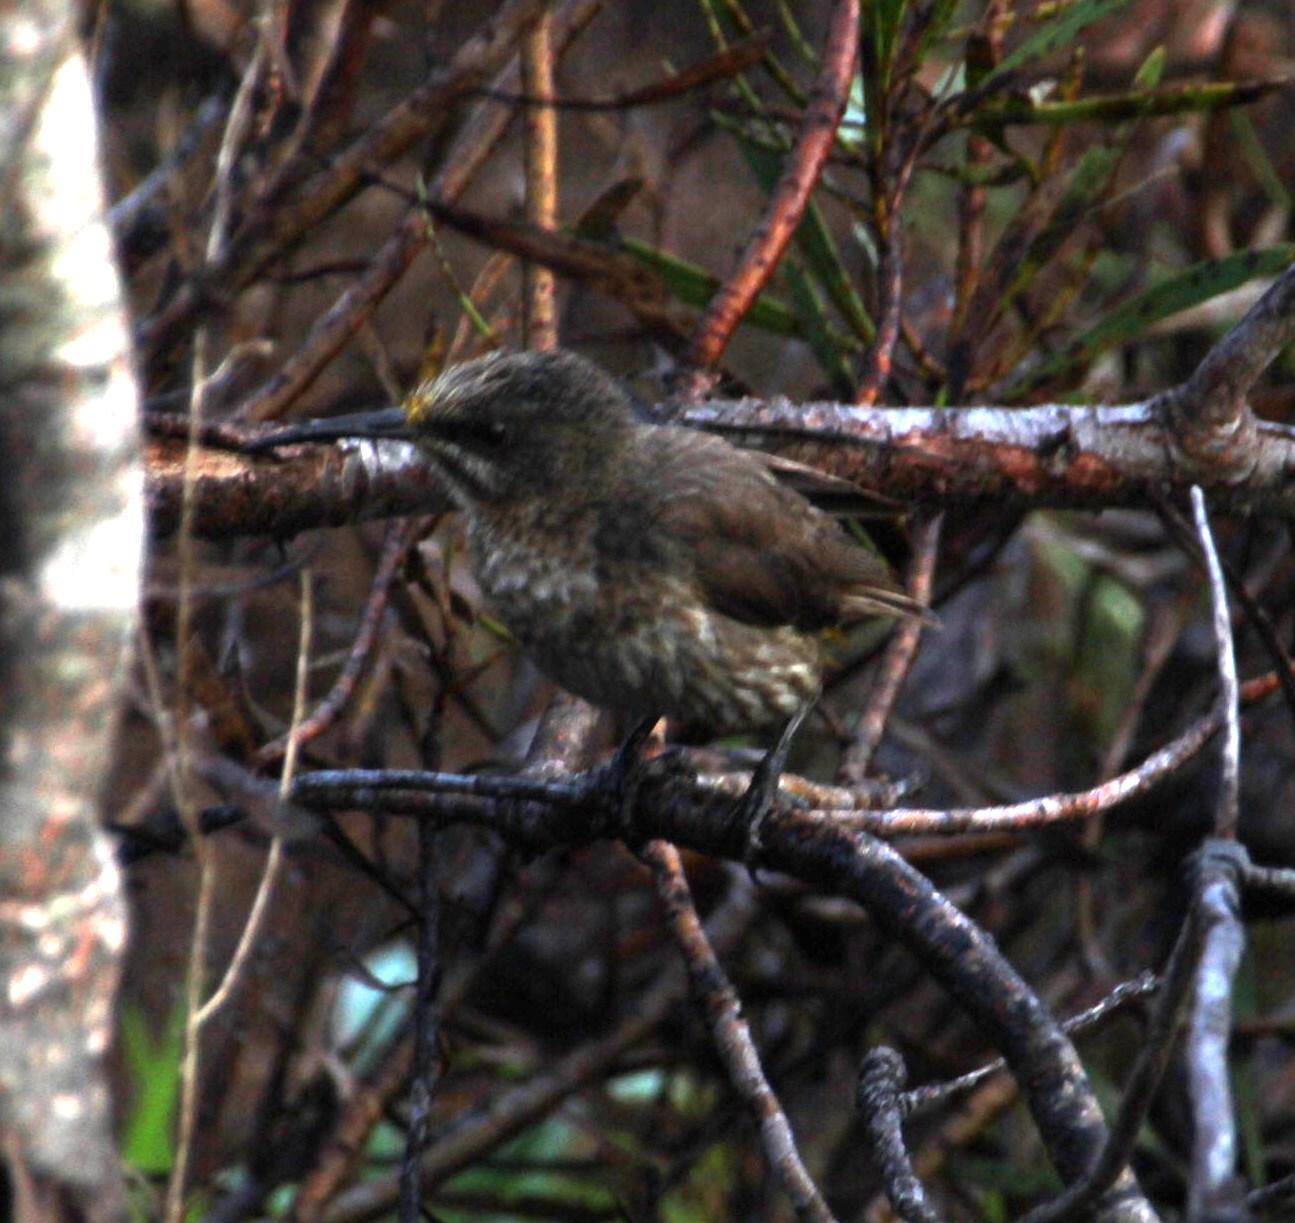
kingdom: Animalia
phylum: Chordata
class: Aves
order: Passeriformes
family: Promeropidae
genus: Promerops
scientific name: Promerops cafer
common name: Cape sugarbird
